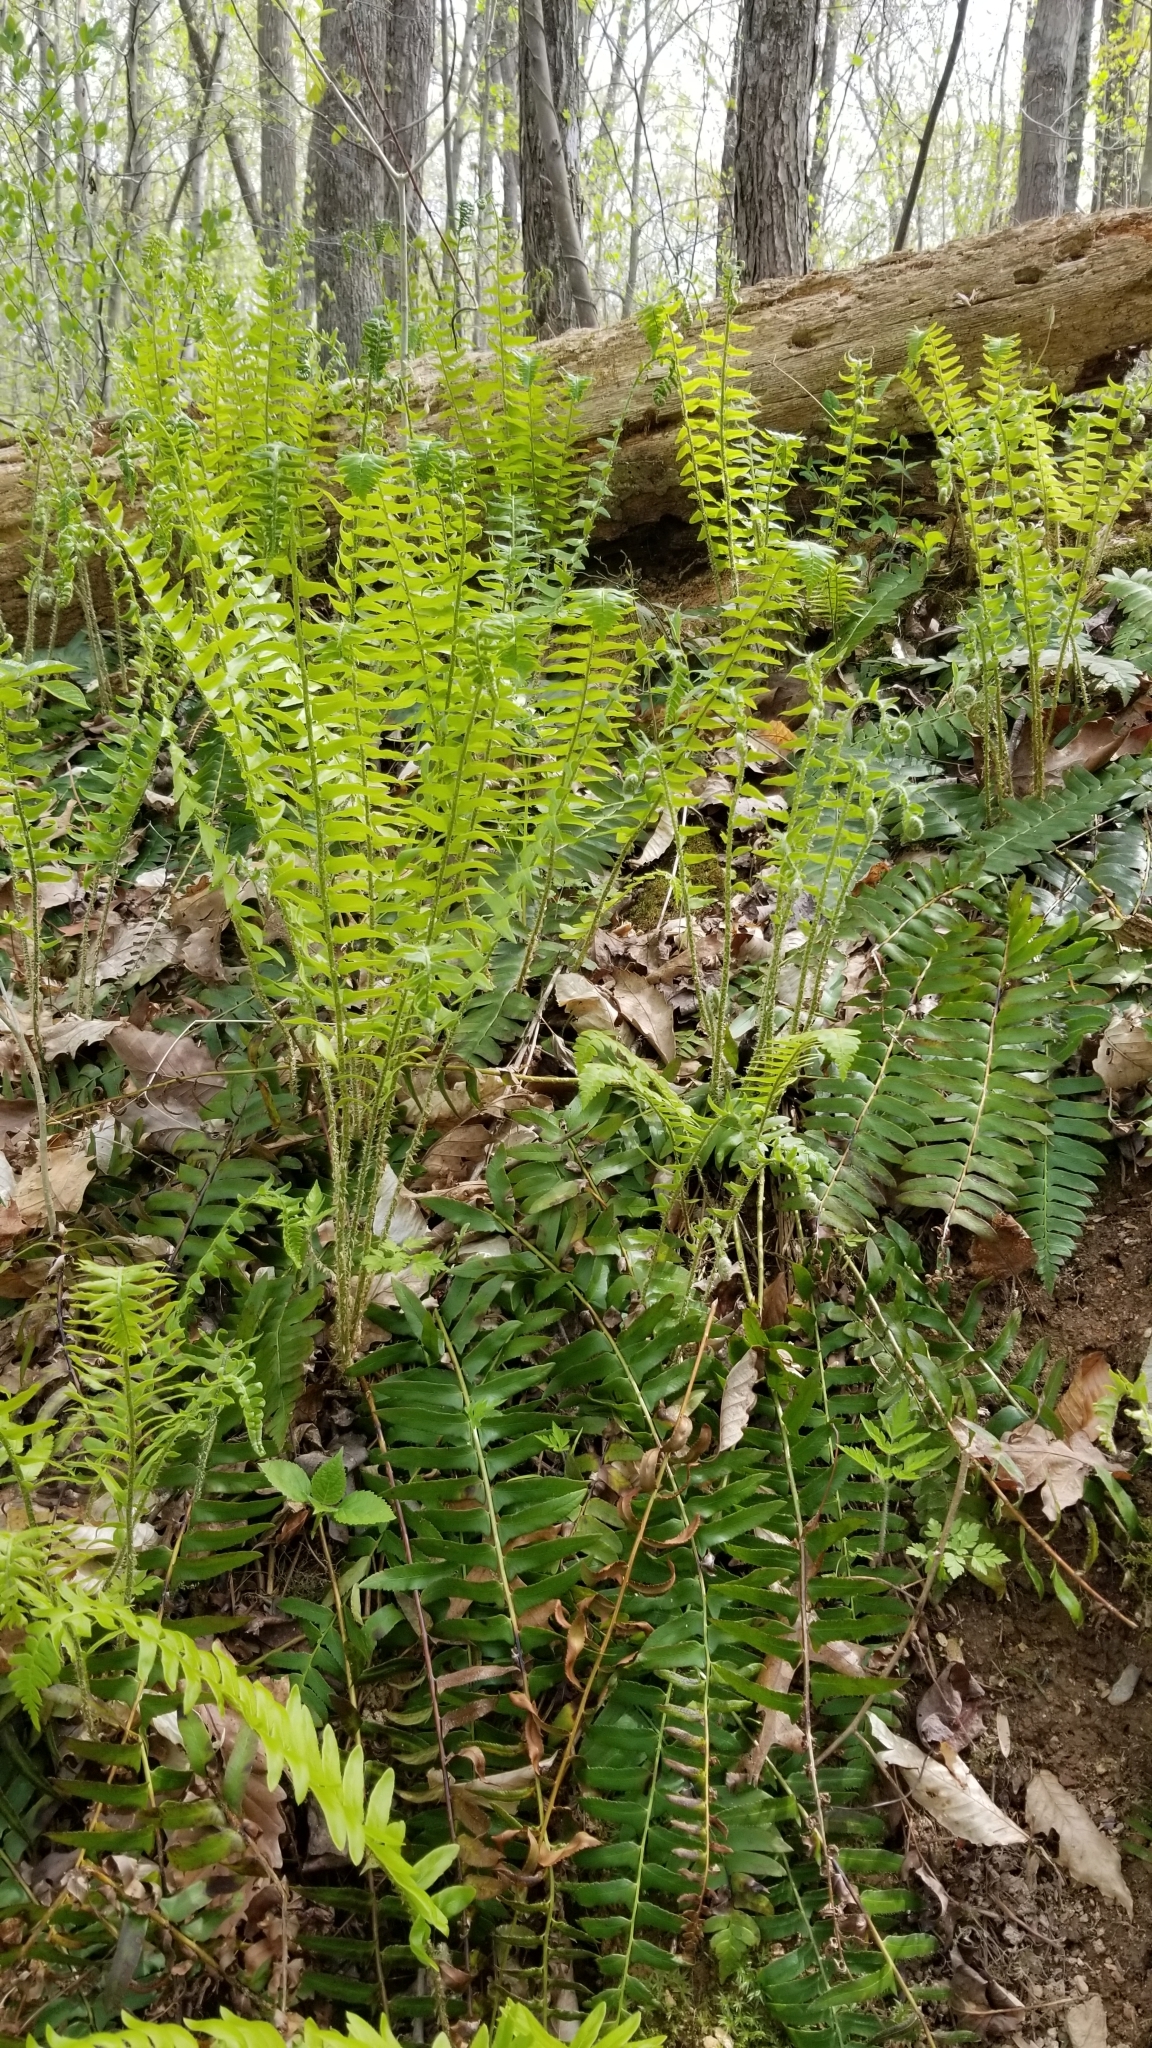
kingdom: Plantae
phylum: Tracheophyta
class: Polypodiopsida
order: Polypodiales
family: Dryopteridaceae
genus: Polystichum
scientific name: Polystichum acrostichoides
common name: Christmas fern
